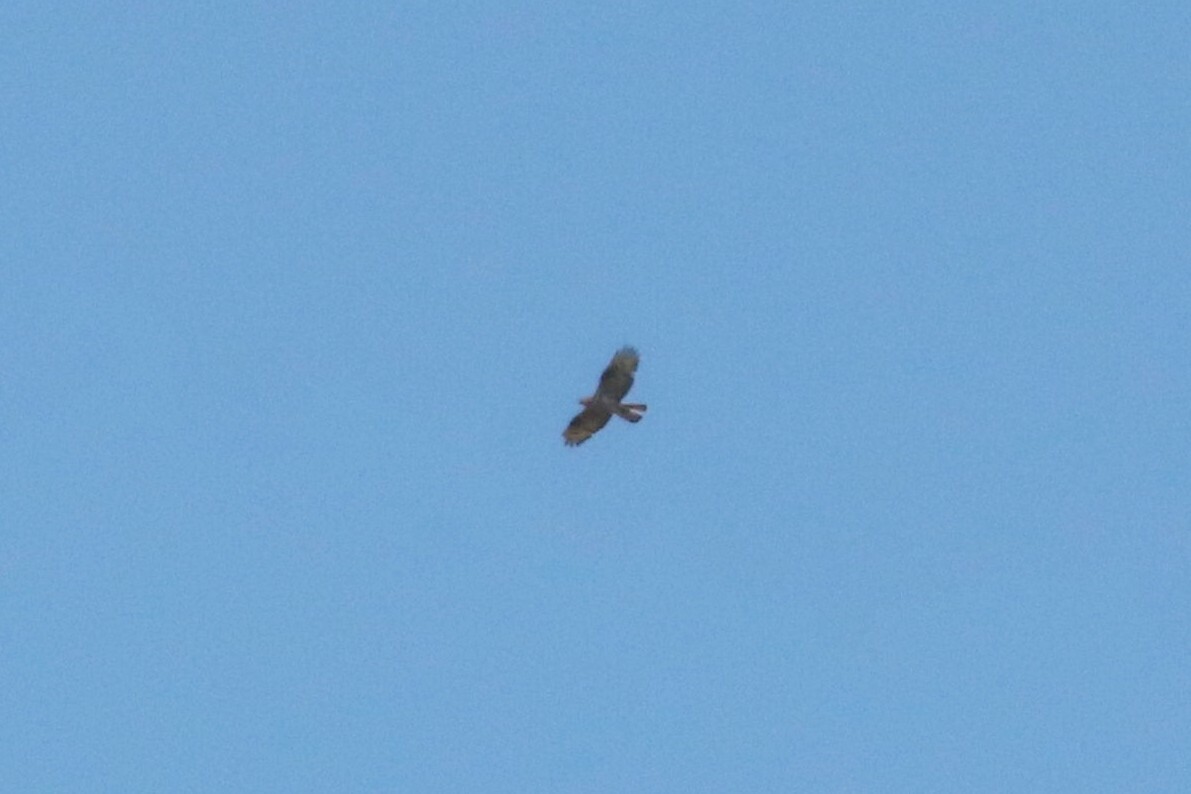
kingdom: Animalia
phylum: Chordata
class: Aves
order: Accipitriformes
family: Accipitridae
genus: Pernis
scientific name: Pernis apivorus
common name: European honey buzzard
